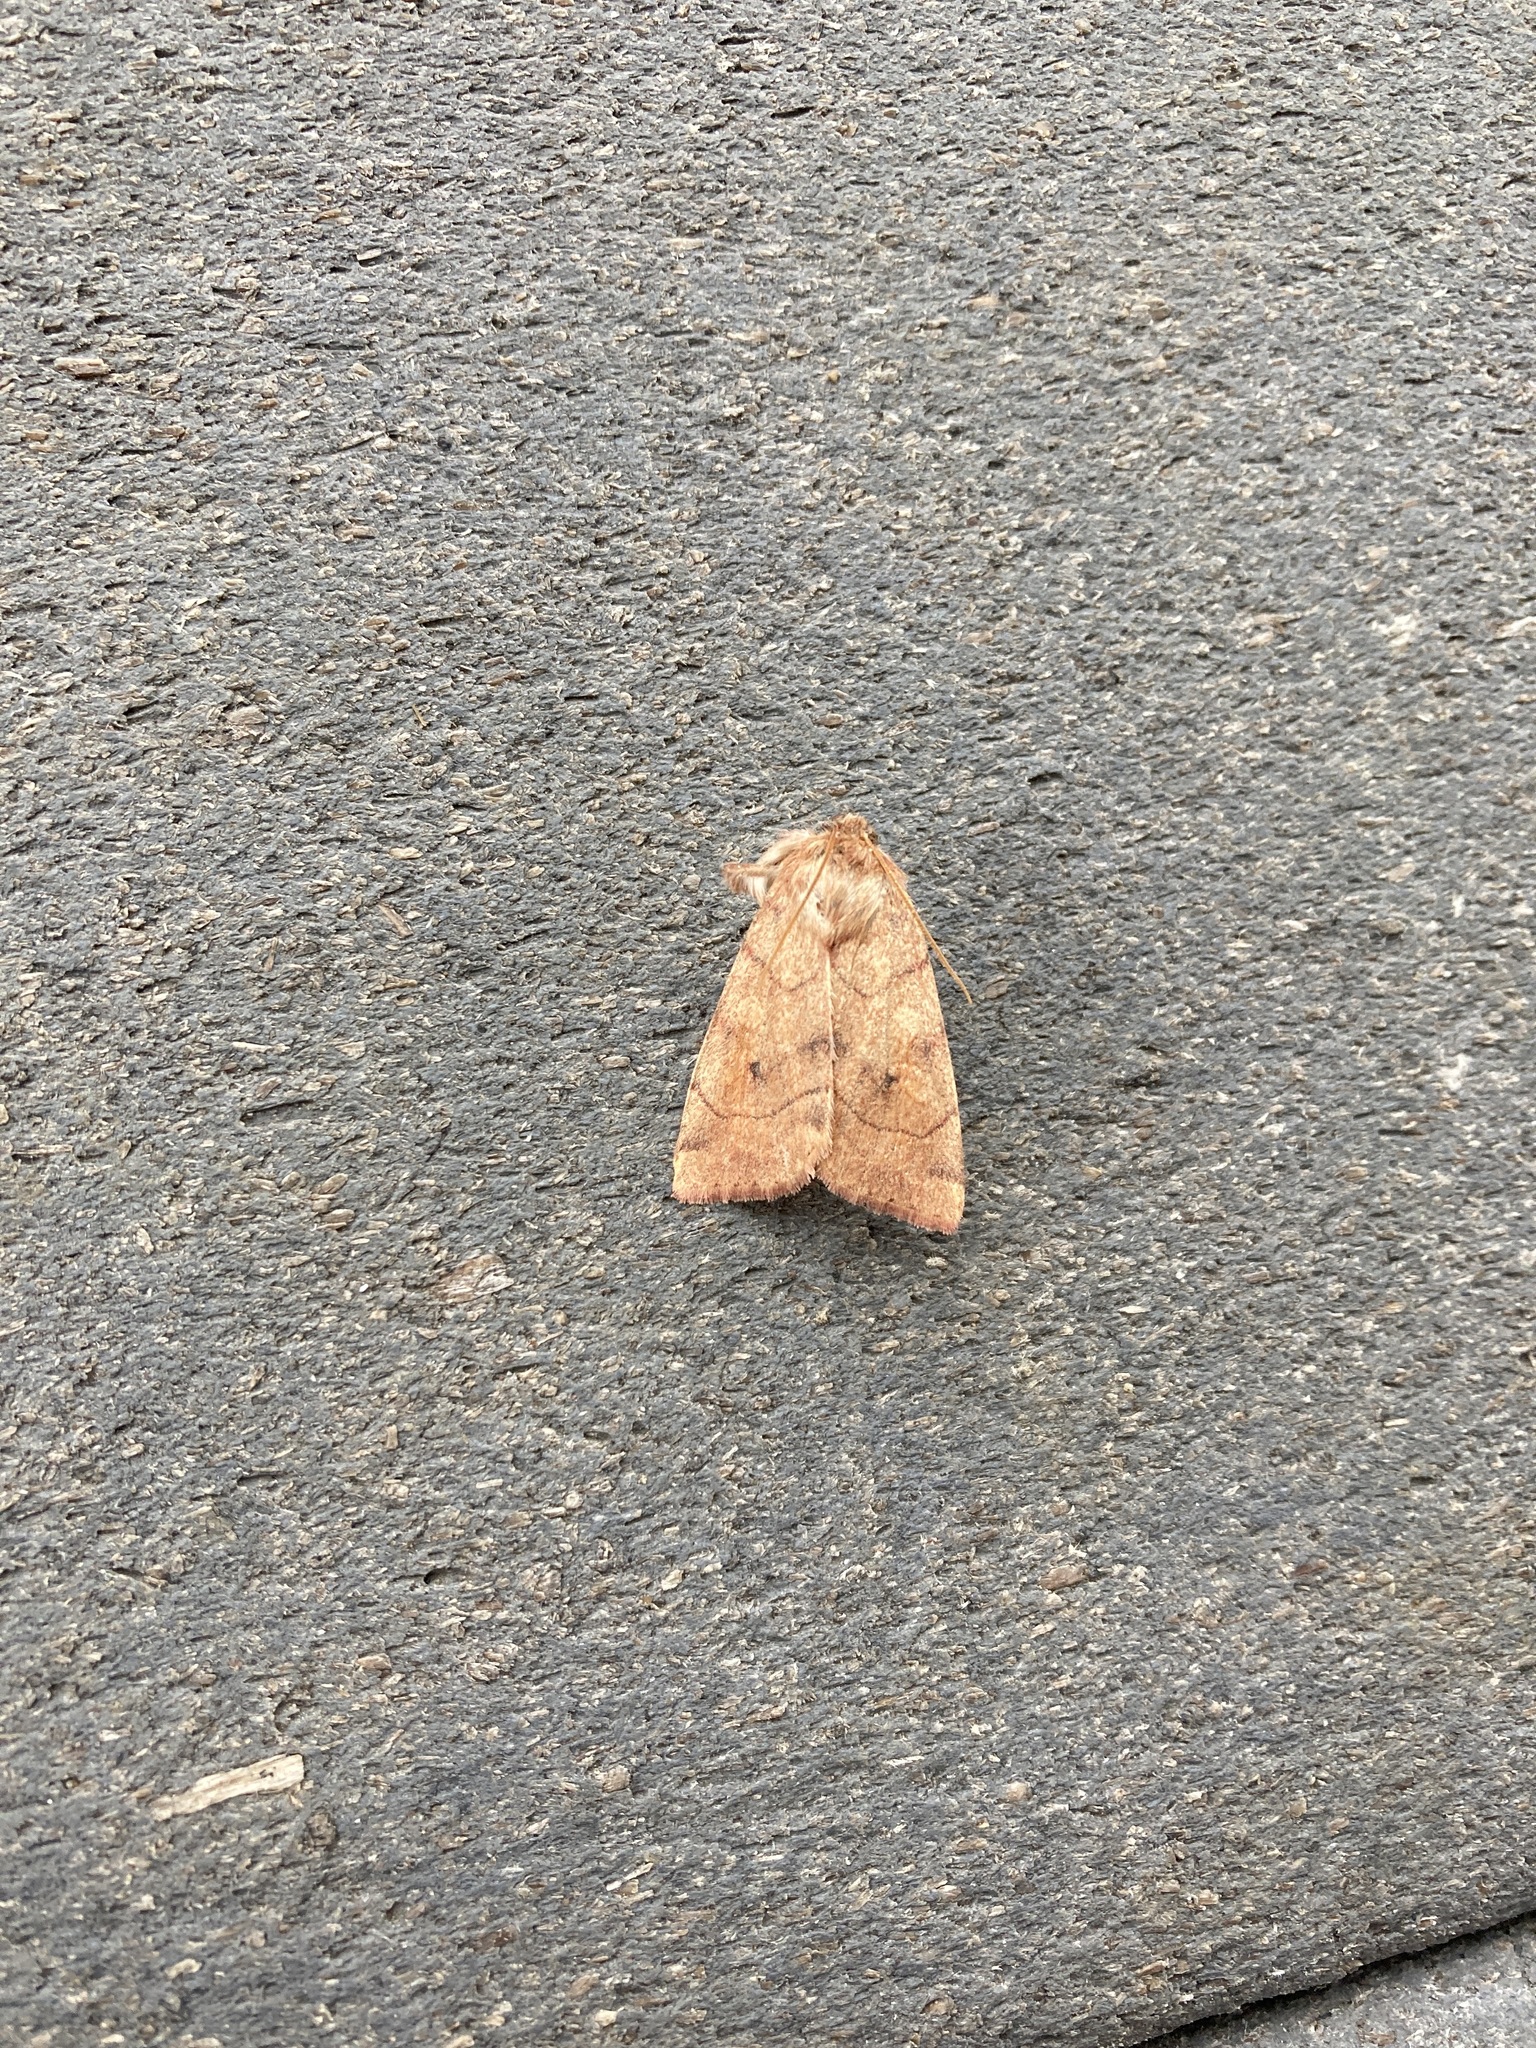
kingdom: Animalia
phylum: Arthropoda
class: Insecta
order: Lepidoptera
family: Noctuidae
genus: Enargia
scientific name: Enargia infumata
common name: Smoked sallow
